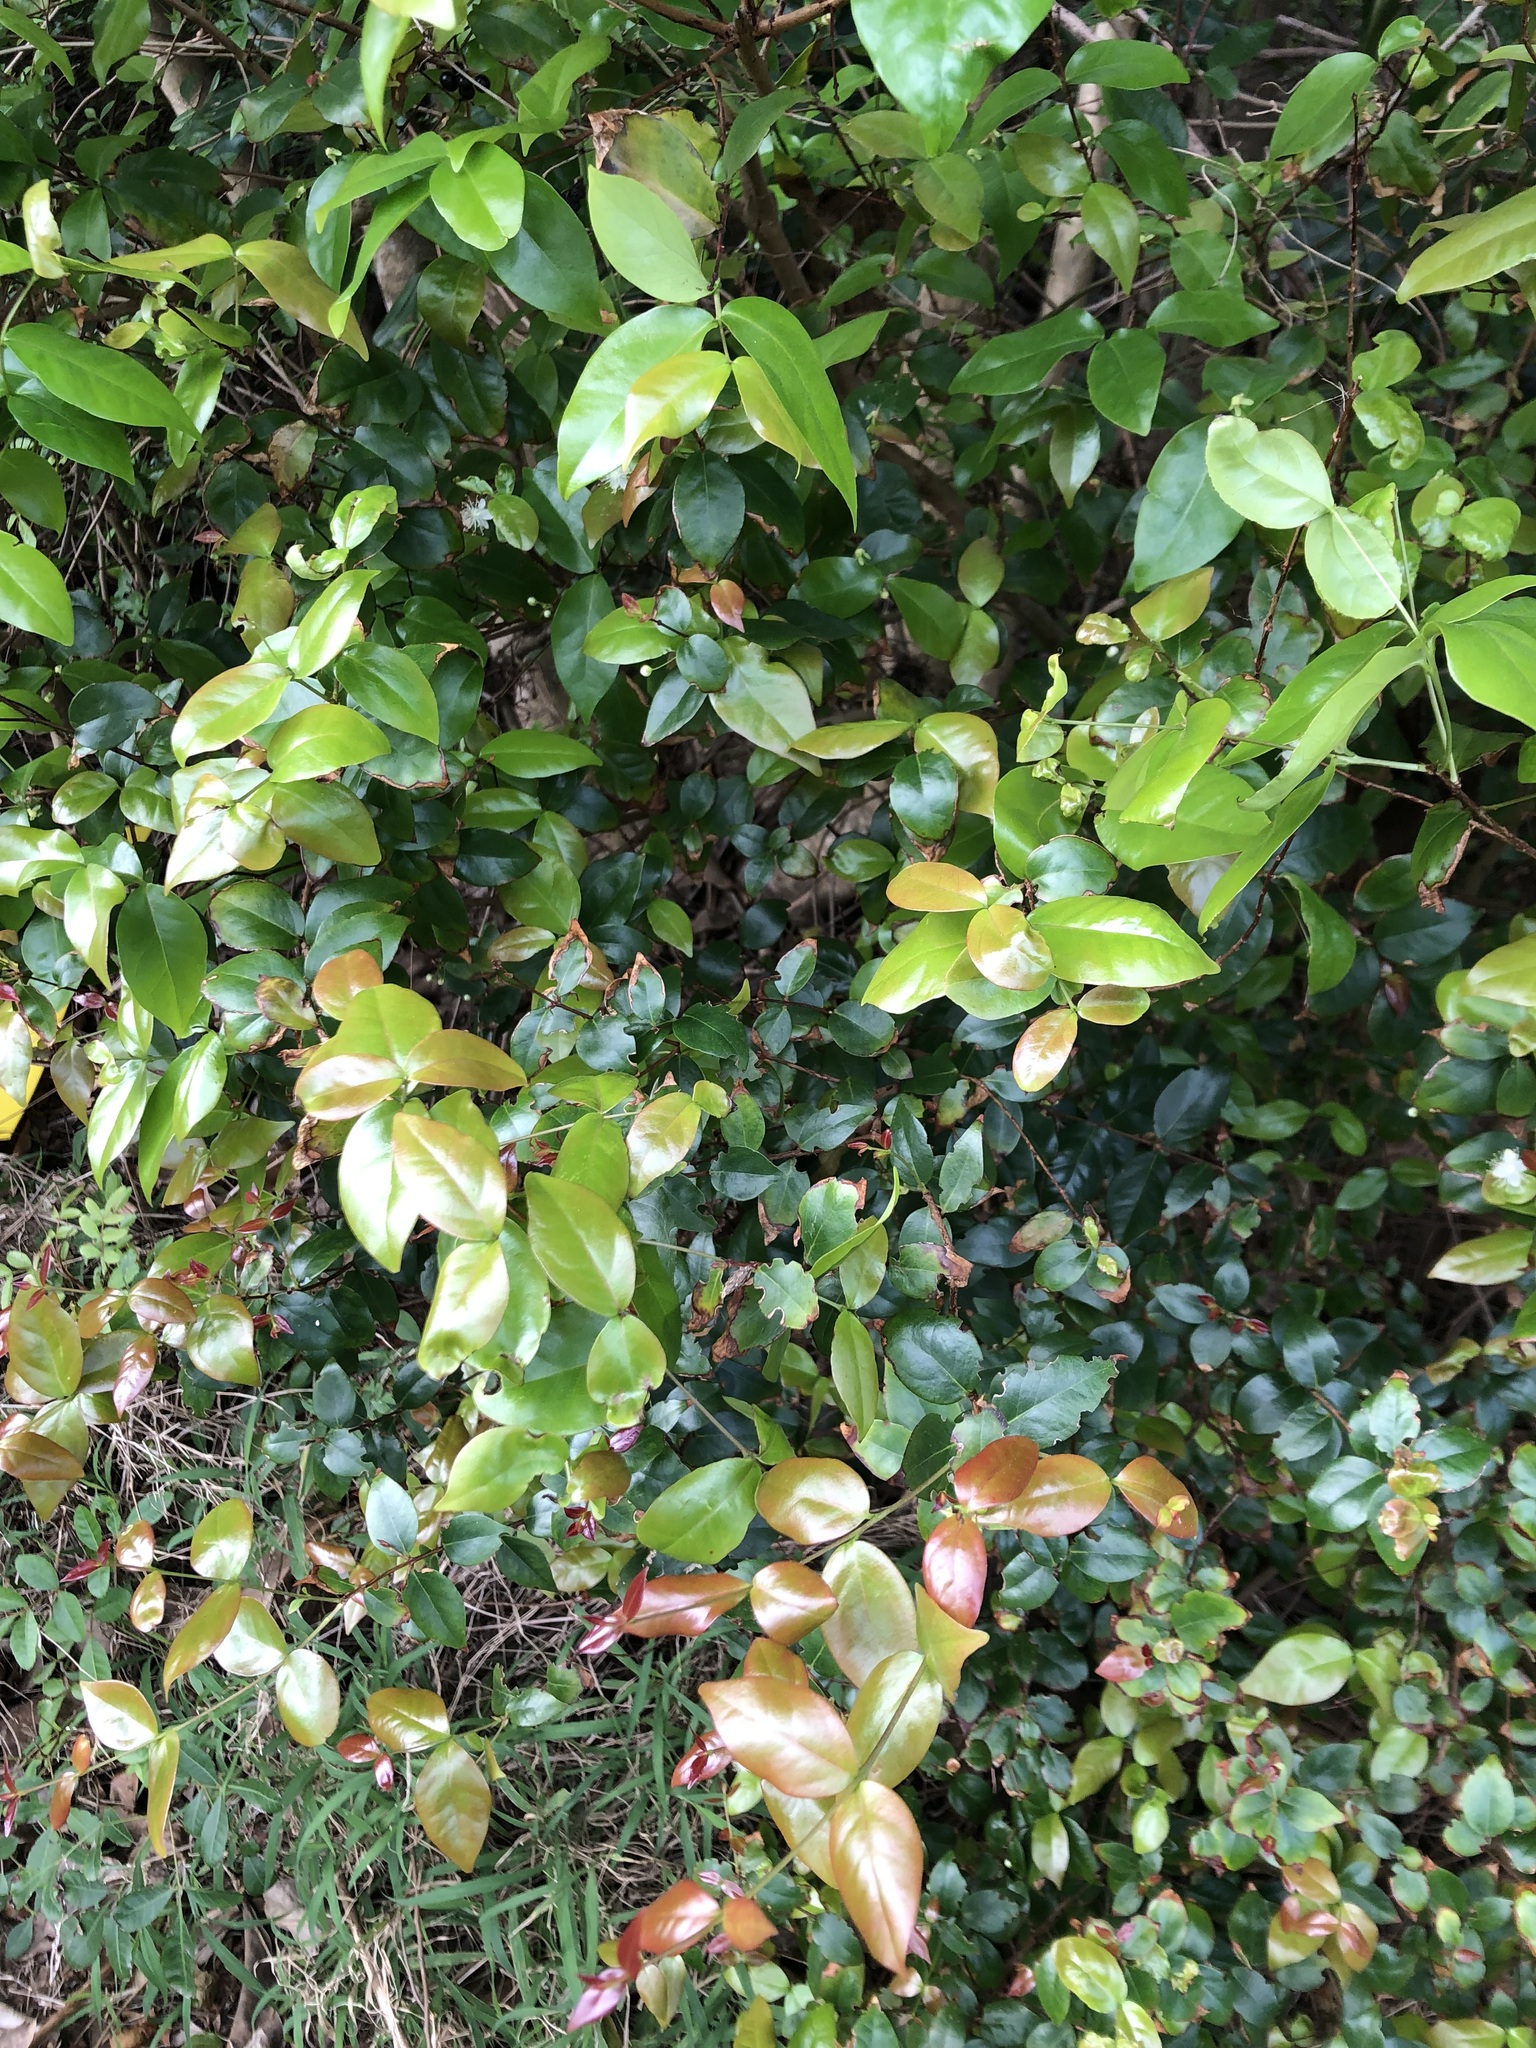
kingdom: Plantae
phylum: Tracheophyta
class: Magnoliopsida
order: Myrtales
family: Myrtaceae
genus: Eugenia
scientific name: Eugenia uniflora
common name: Surinam cherry
